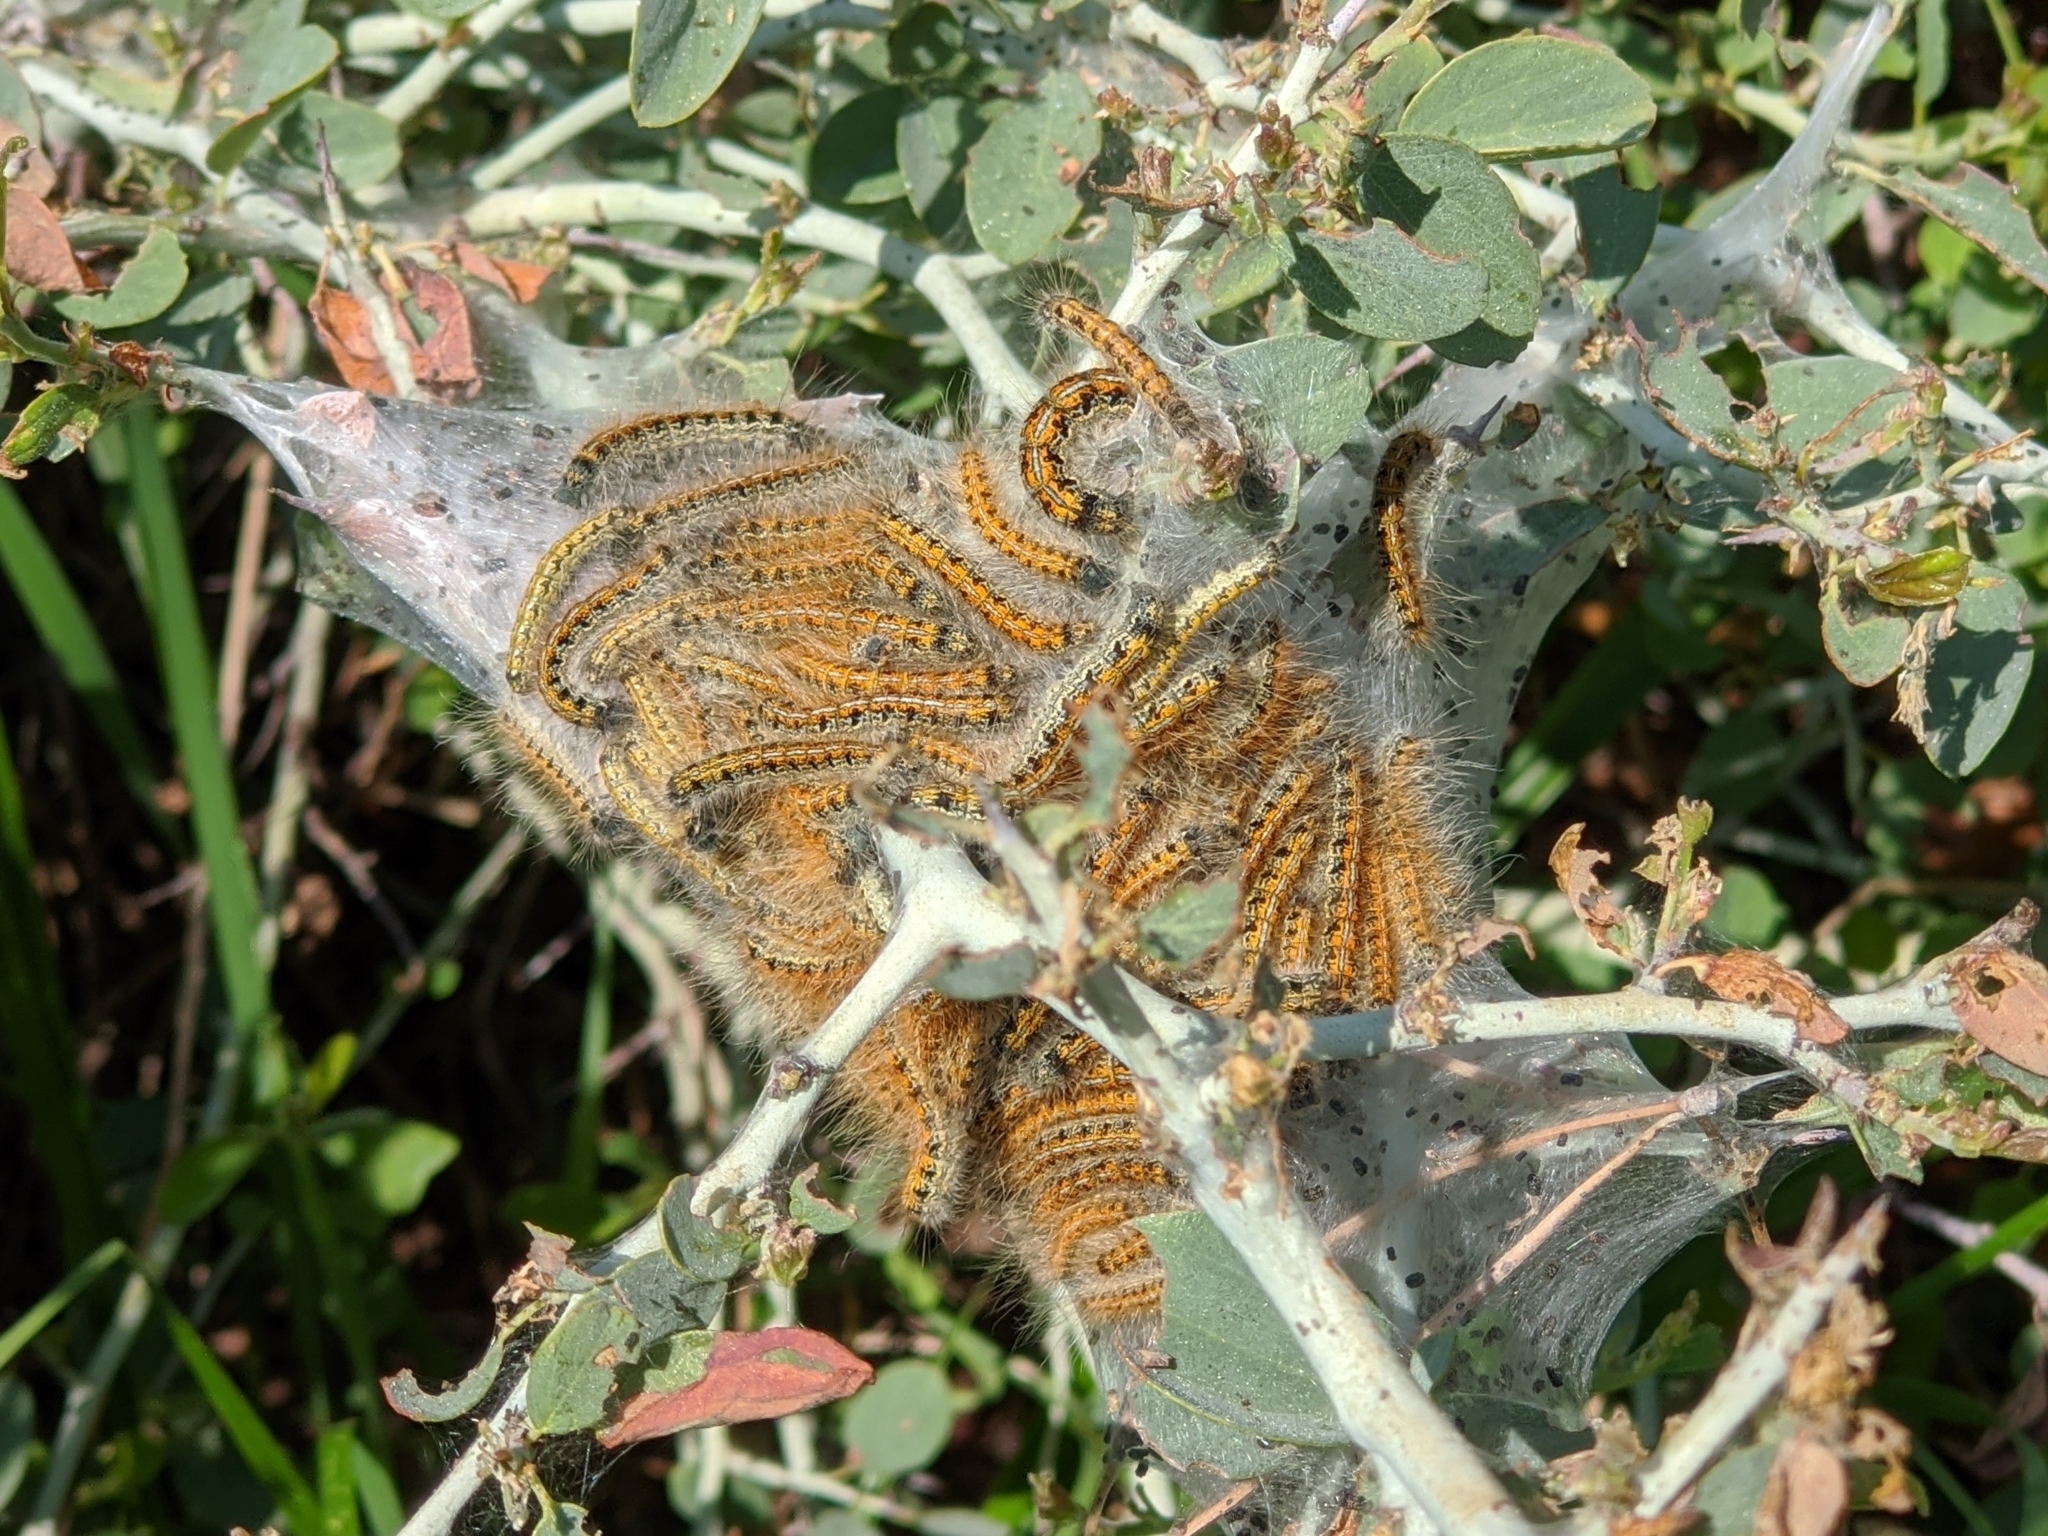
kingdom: Animalia
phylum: Arthropoda
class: Insecta
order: Lepidoptera
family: Lasiocampidae
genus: Malacosoma
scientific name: Malacosoma californica
